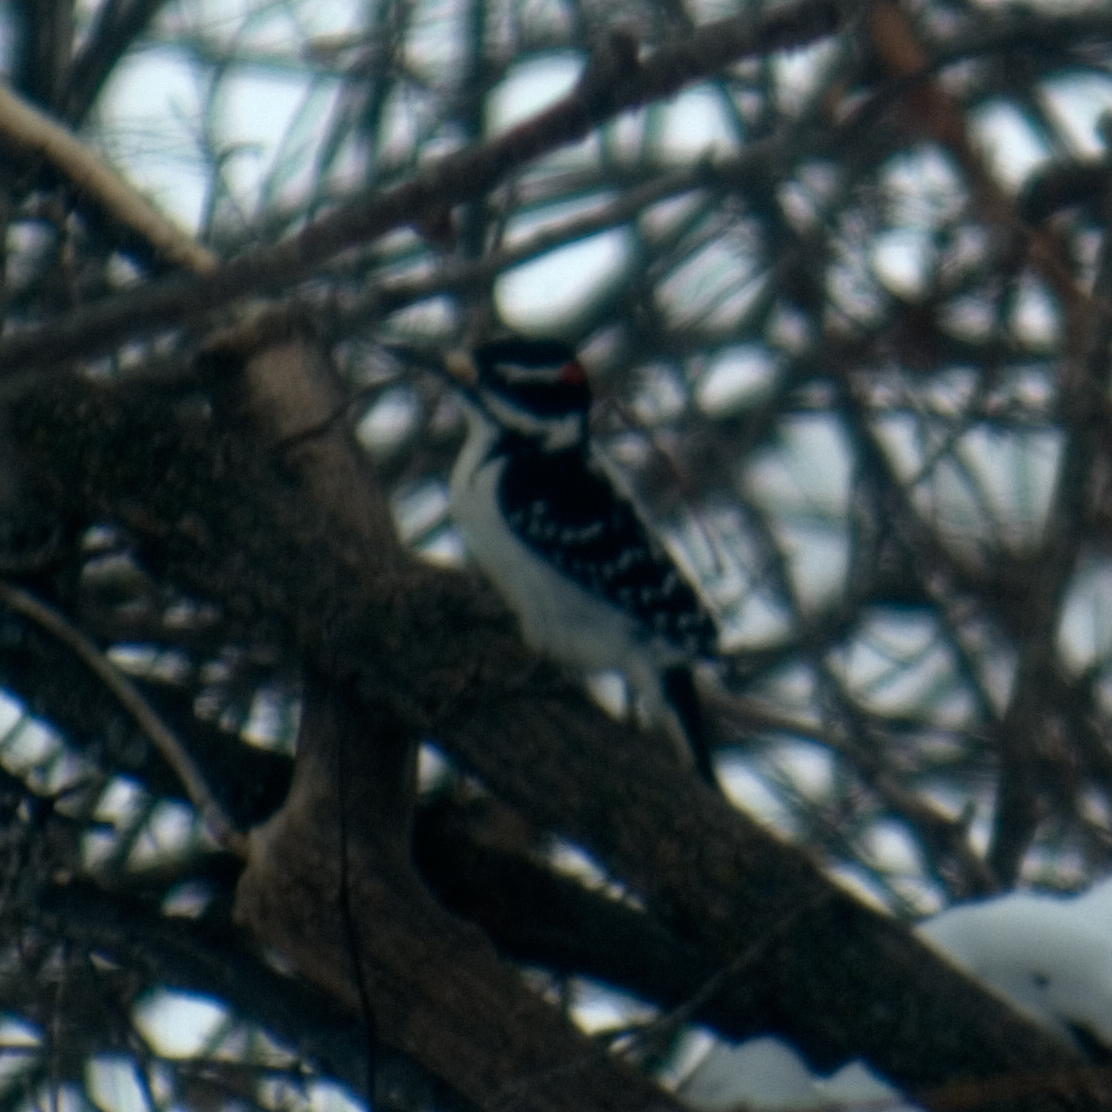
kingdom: Animalia
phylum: Chordata
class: Aves
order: Piciformes
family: Picidae
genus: Leuconotopicus
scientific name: Leuconotopicus villosus
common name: Hairy woodpecker
